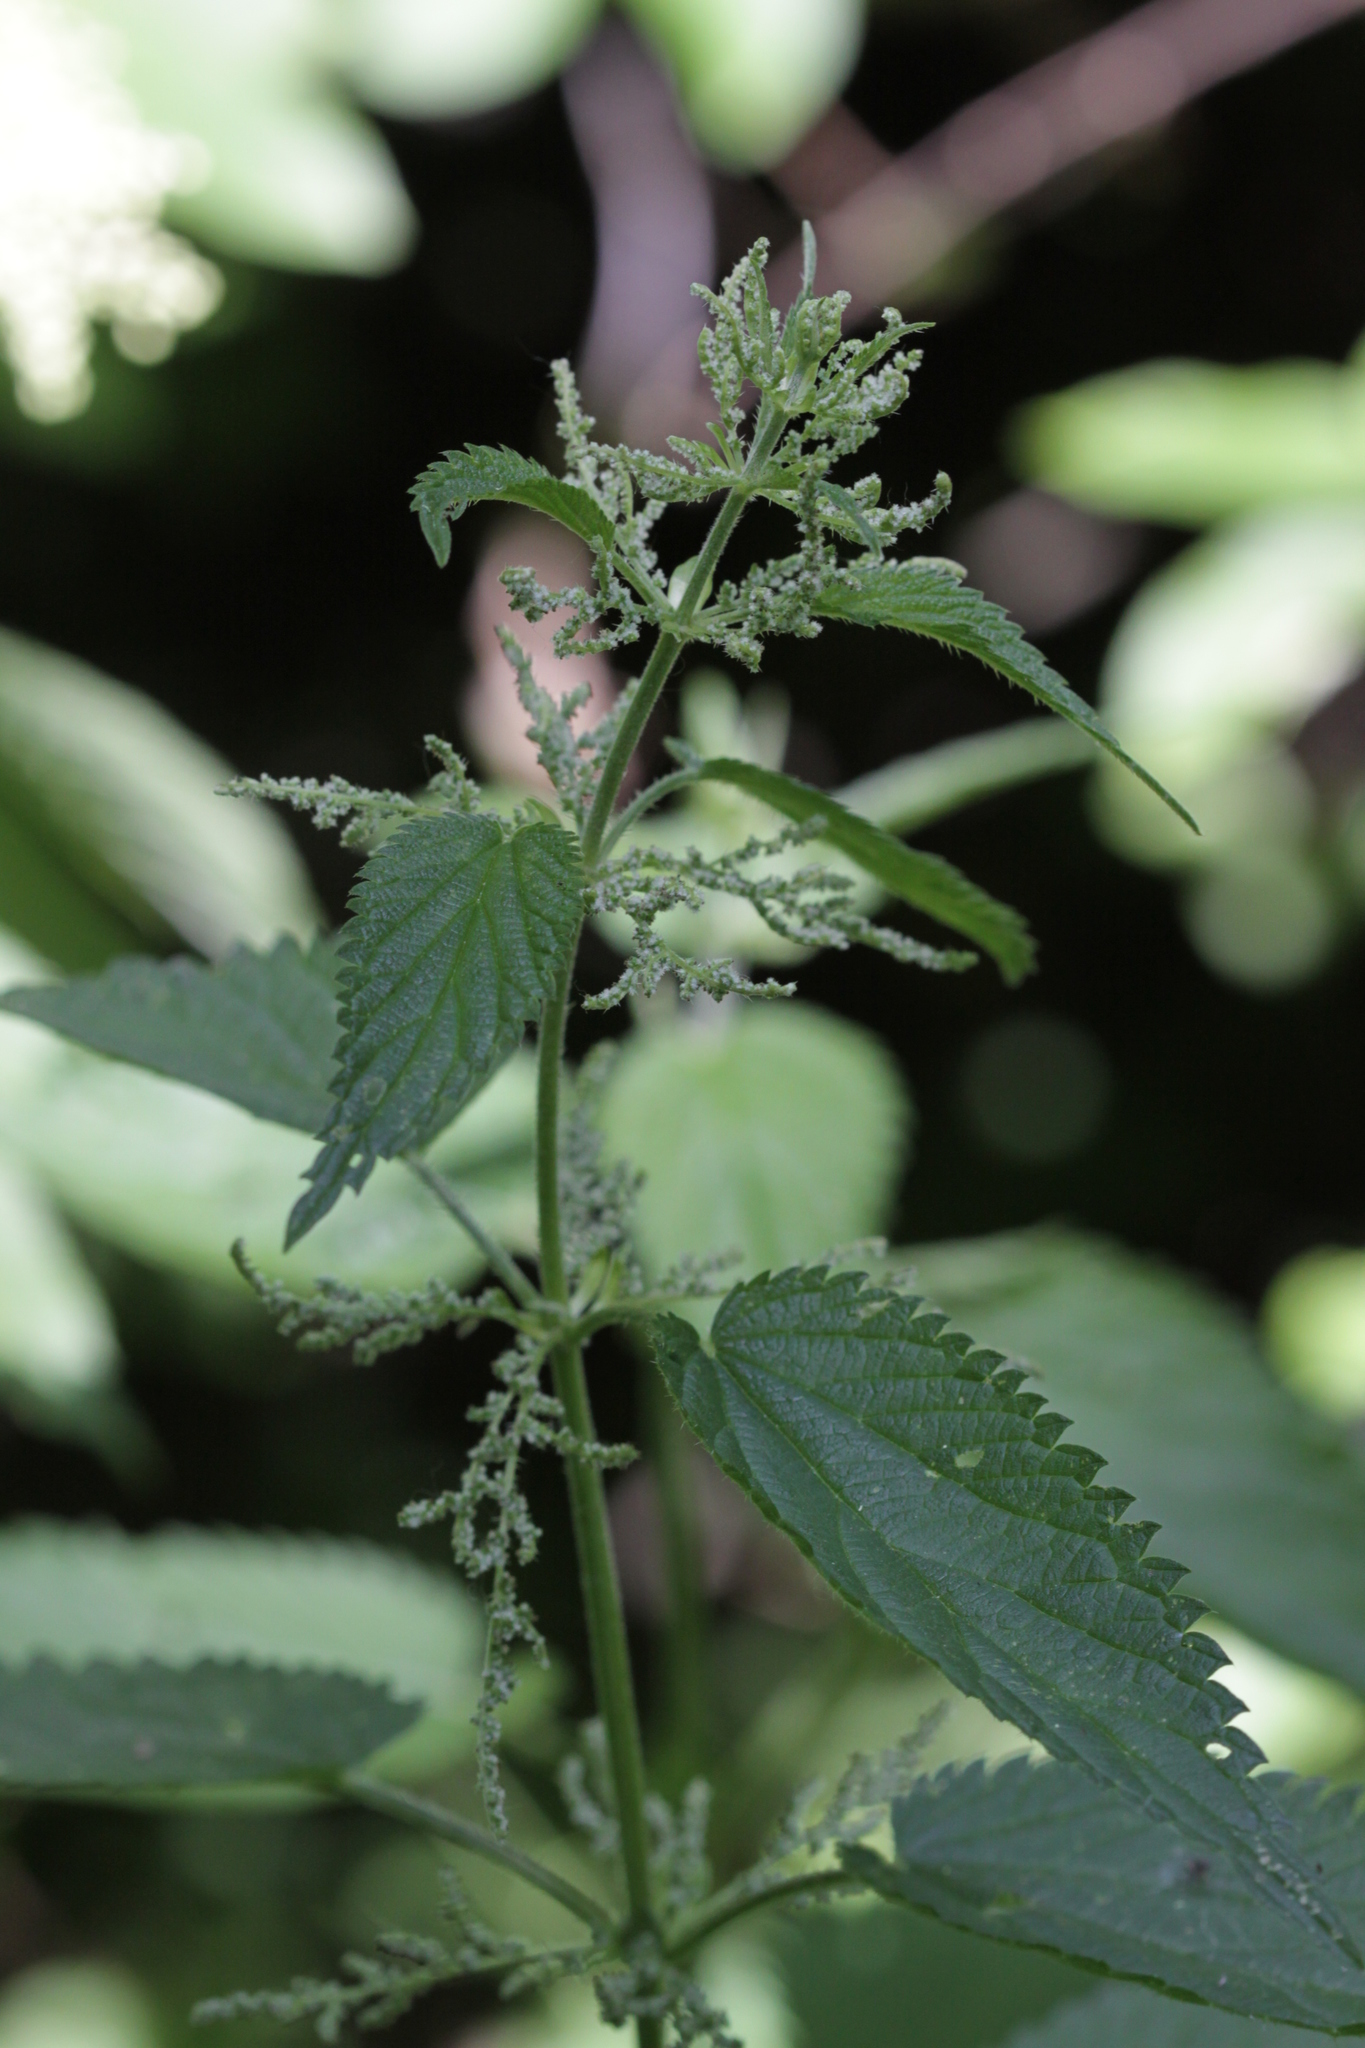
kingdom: Plantae
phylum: Tracheophyta
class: Magnoliopsida
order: Rosales
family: Urticaceae
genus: Urtica
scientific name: Urtica dioica
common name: Common nettle
